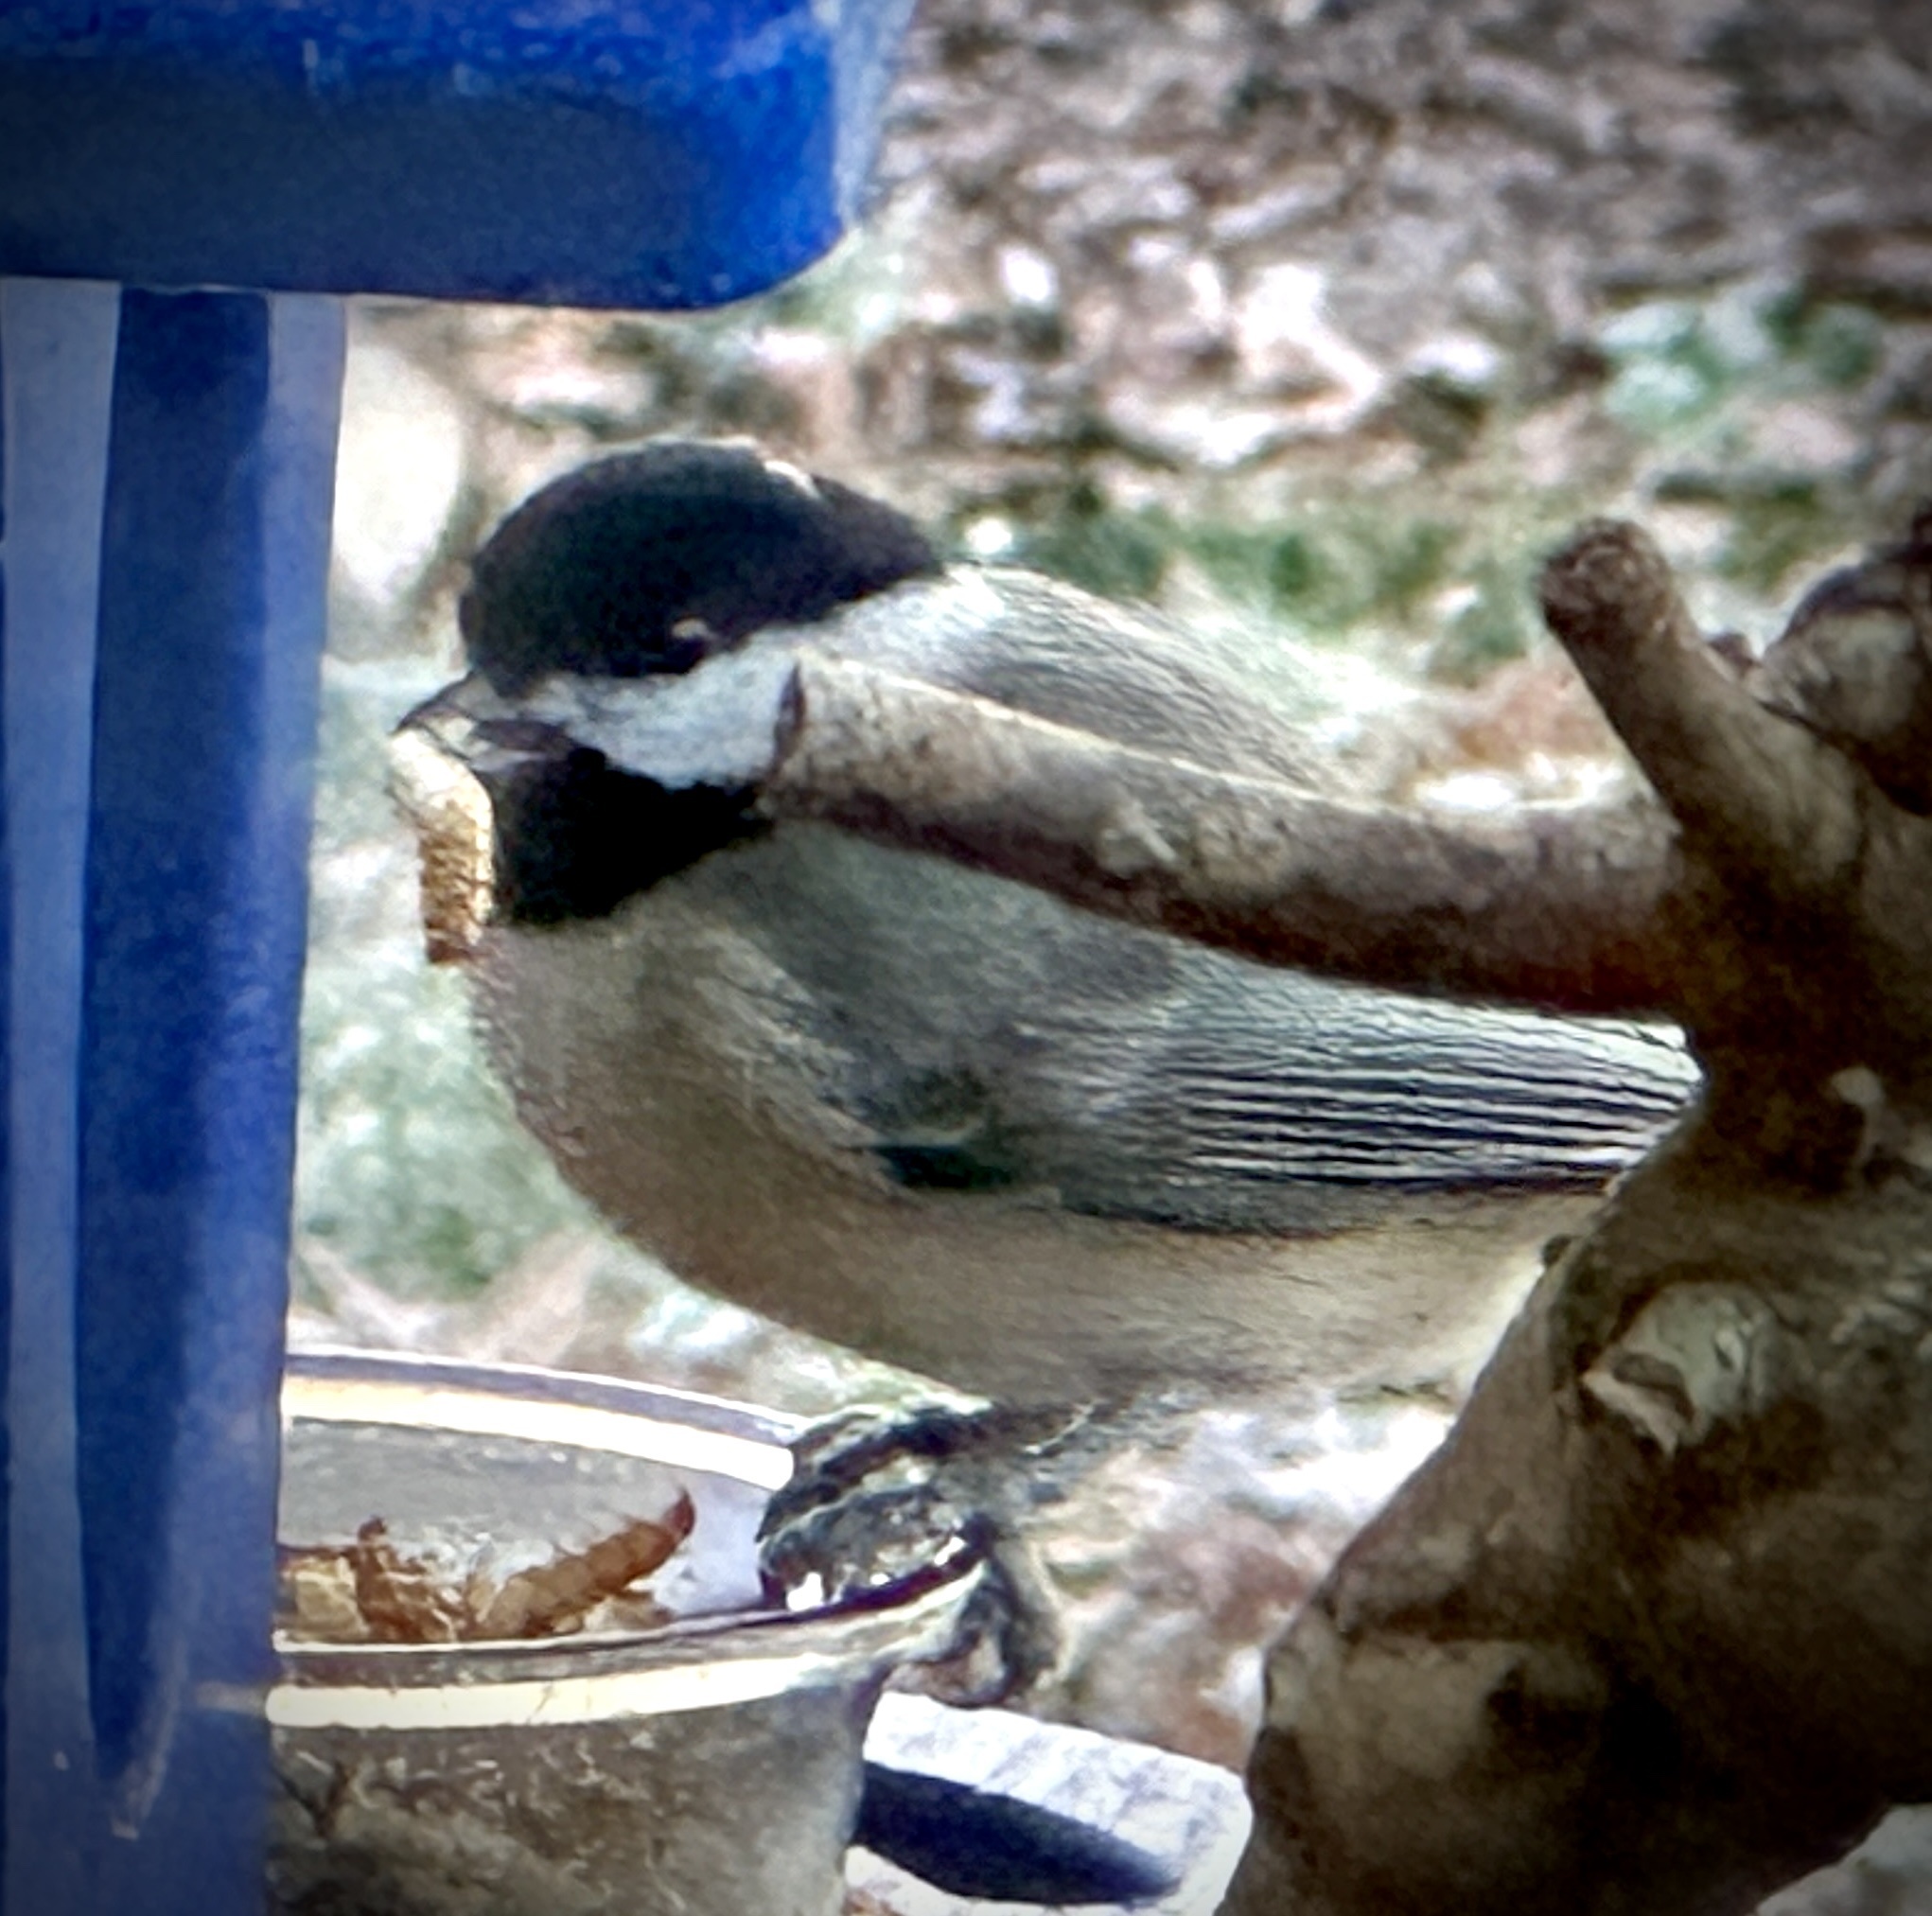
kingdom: Animalia
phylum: Chordata
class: Aves
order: Passeriformes
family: Paridae
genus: Poecile
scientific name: Poecile carolinensis
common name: Carolina chickadee
